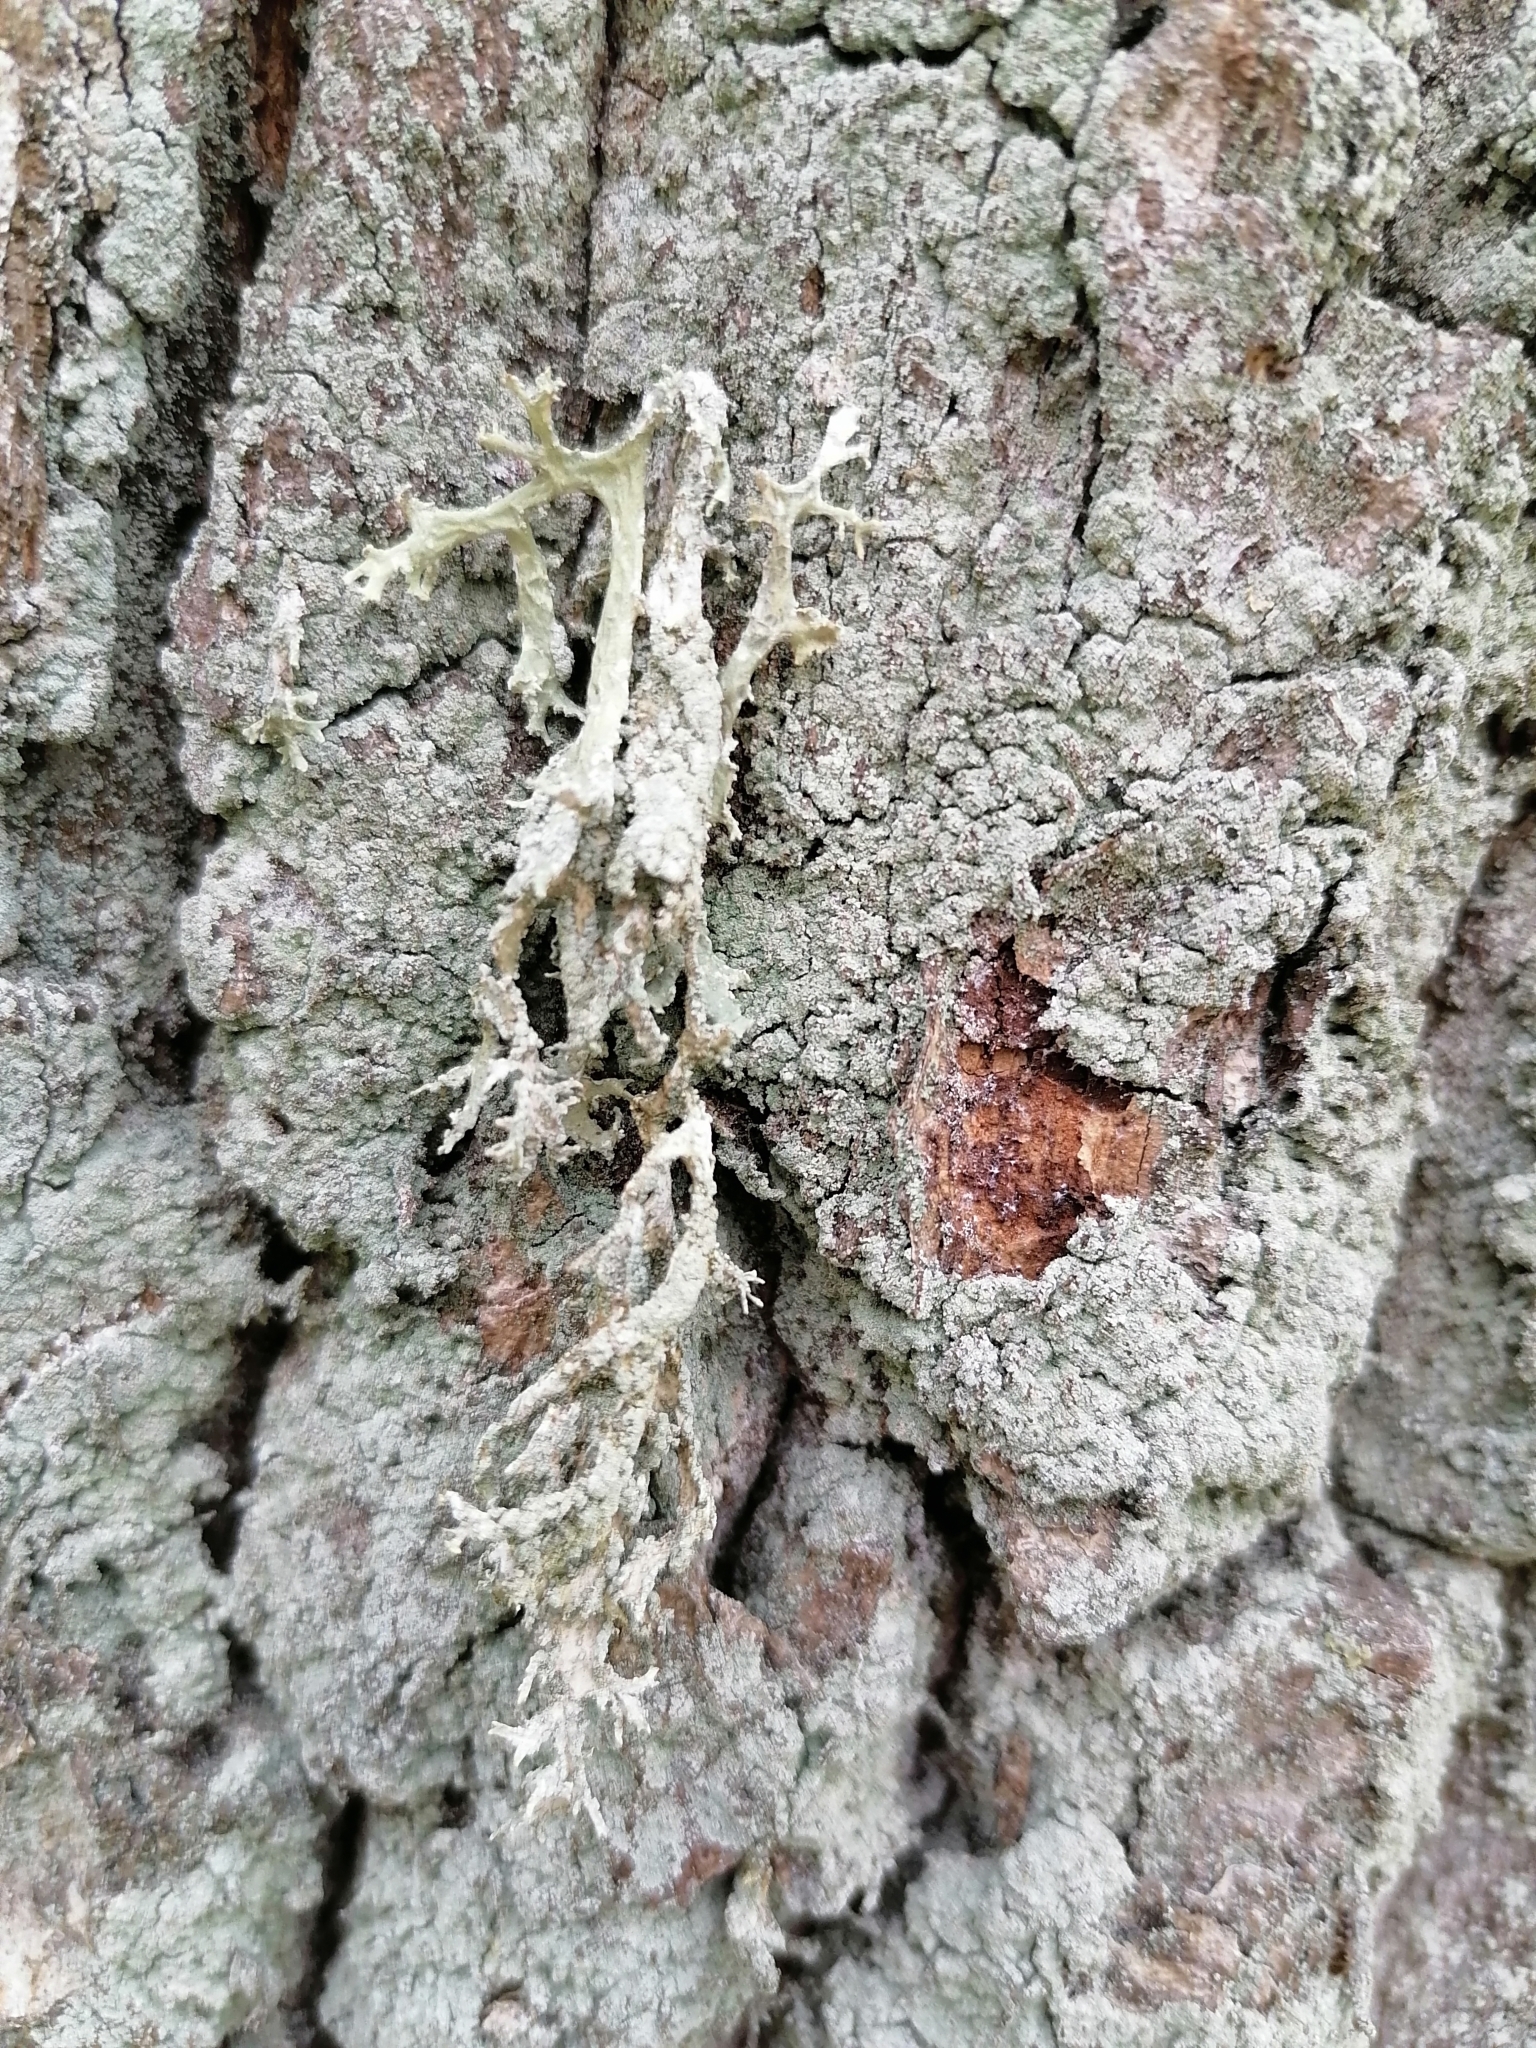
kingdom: Fungi
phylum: Ascomycota
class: Lecanoromycetes
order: Lecanorales
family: Parmeliaceae
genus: Evernia
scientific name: Evernia prunastri
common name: Oak moss
